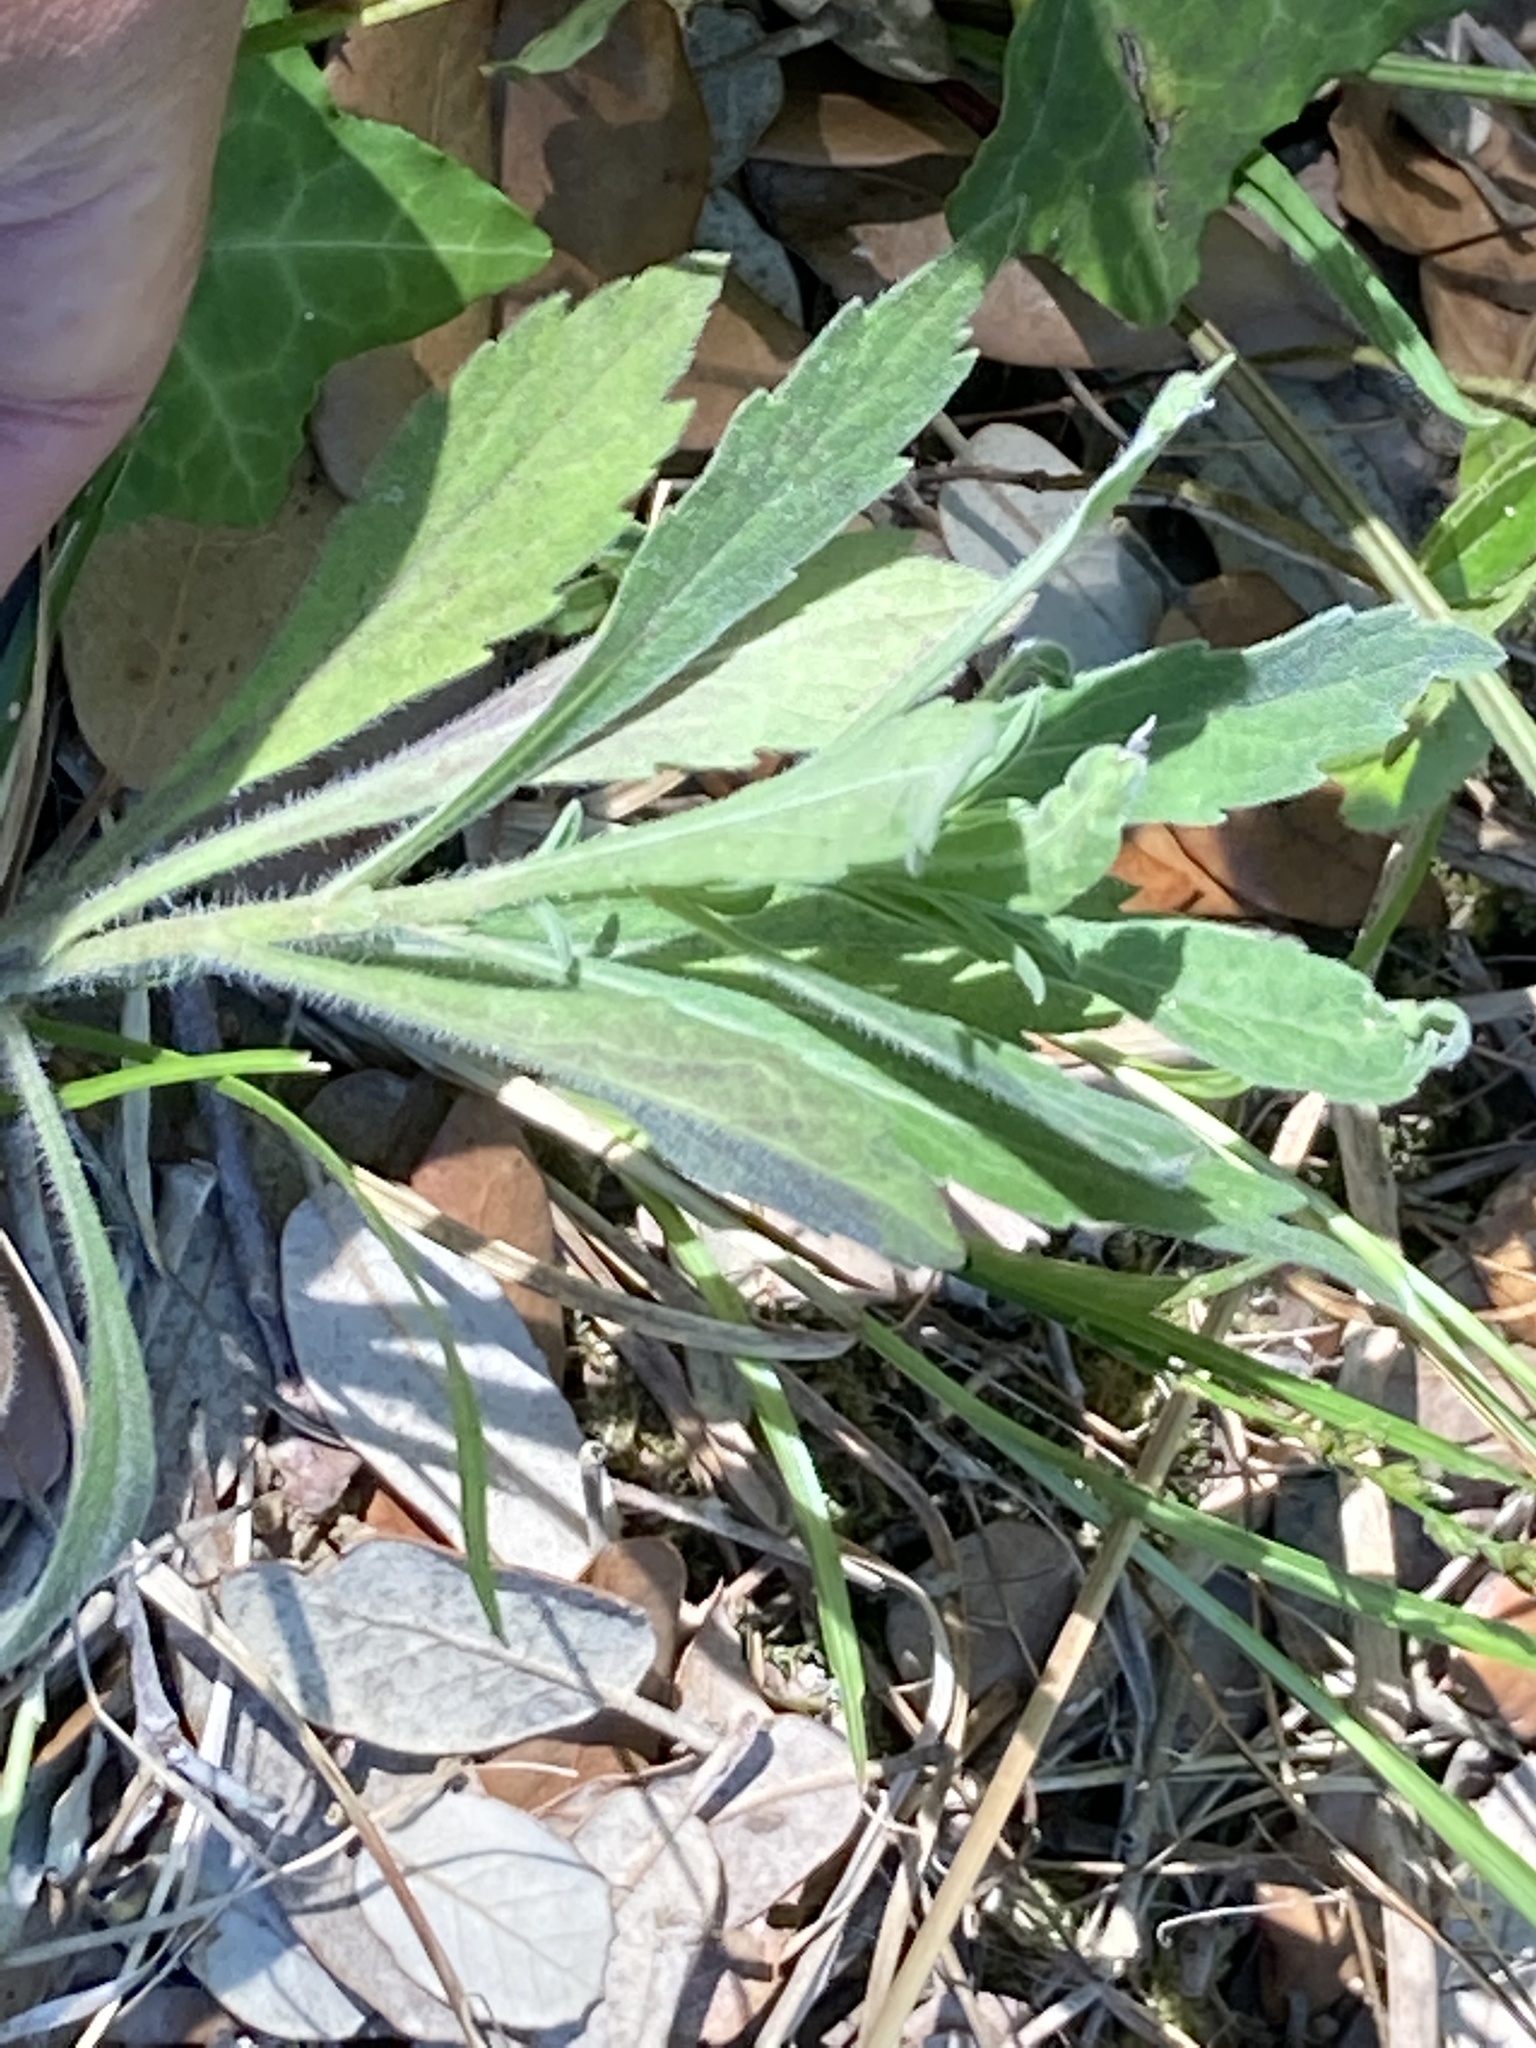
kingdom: Plantae
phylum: Tracheophyta
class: Magnoliopsida
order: Asterales
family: Asteraceae
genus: Erigeron
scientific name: Erigeron sumatrensis
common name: Daisy
